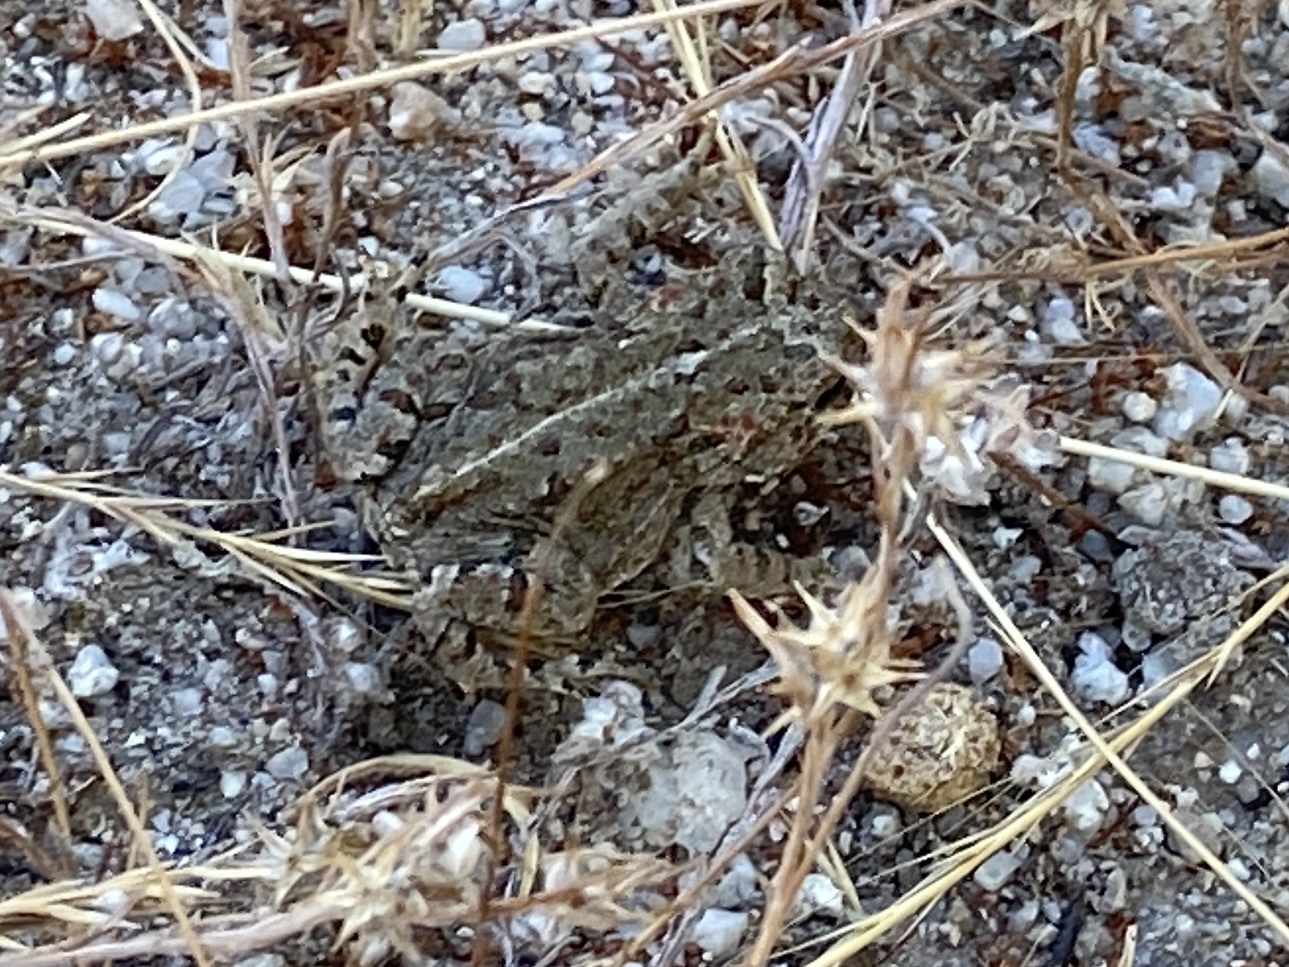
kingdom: Animalia
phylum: Chordata
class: Amphibia
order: Anura
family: Bufonidae
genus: Anaxyrus
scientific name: Anaxyrus boreas
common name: Western toad
